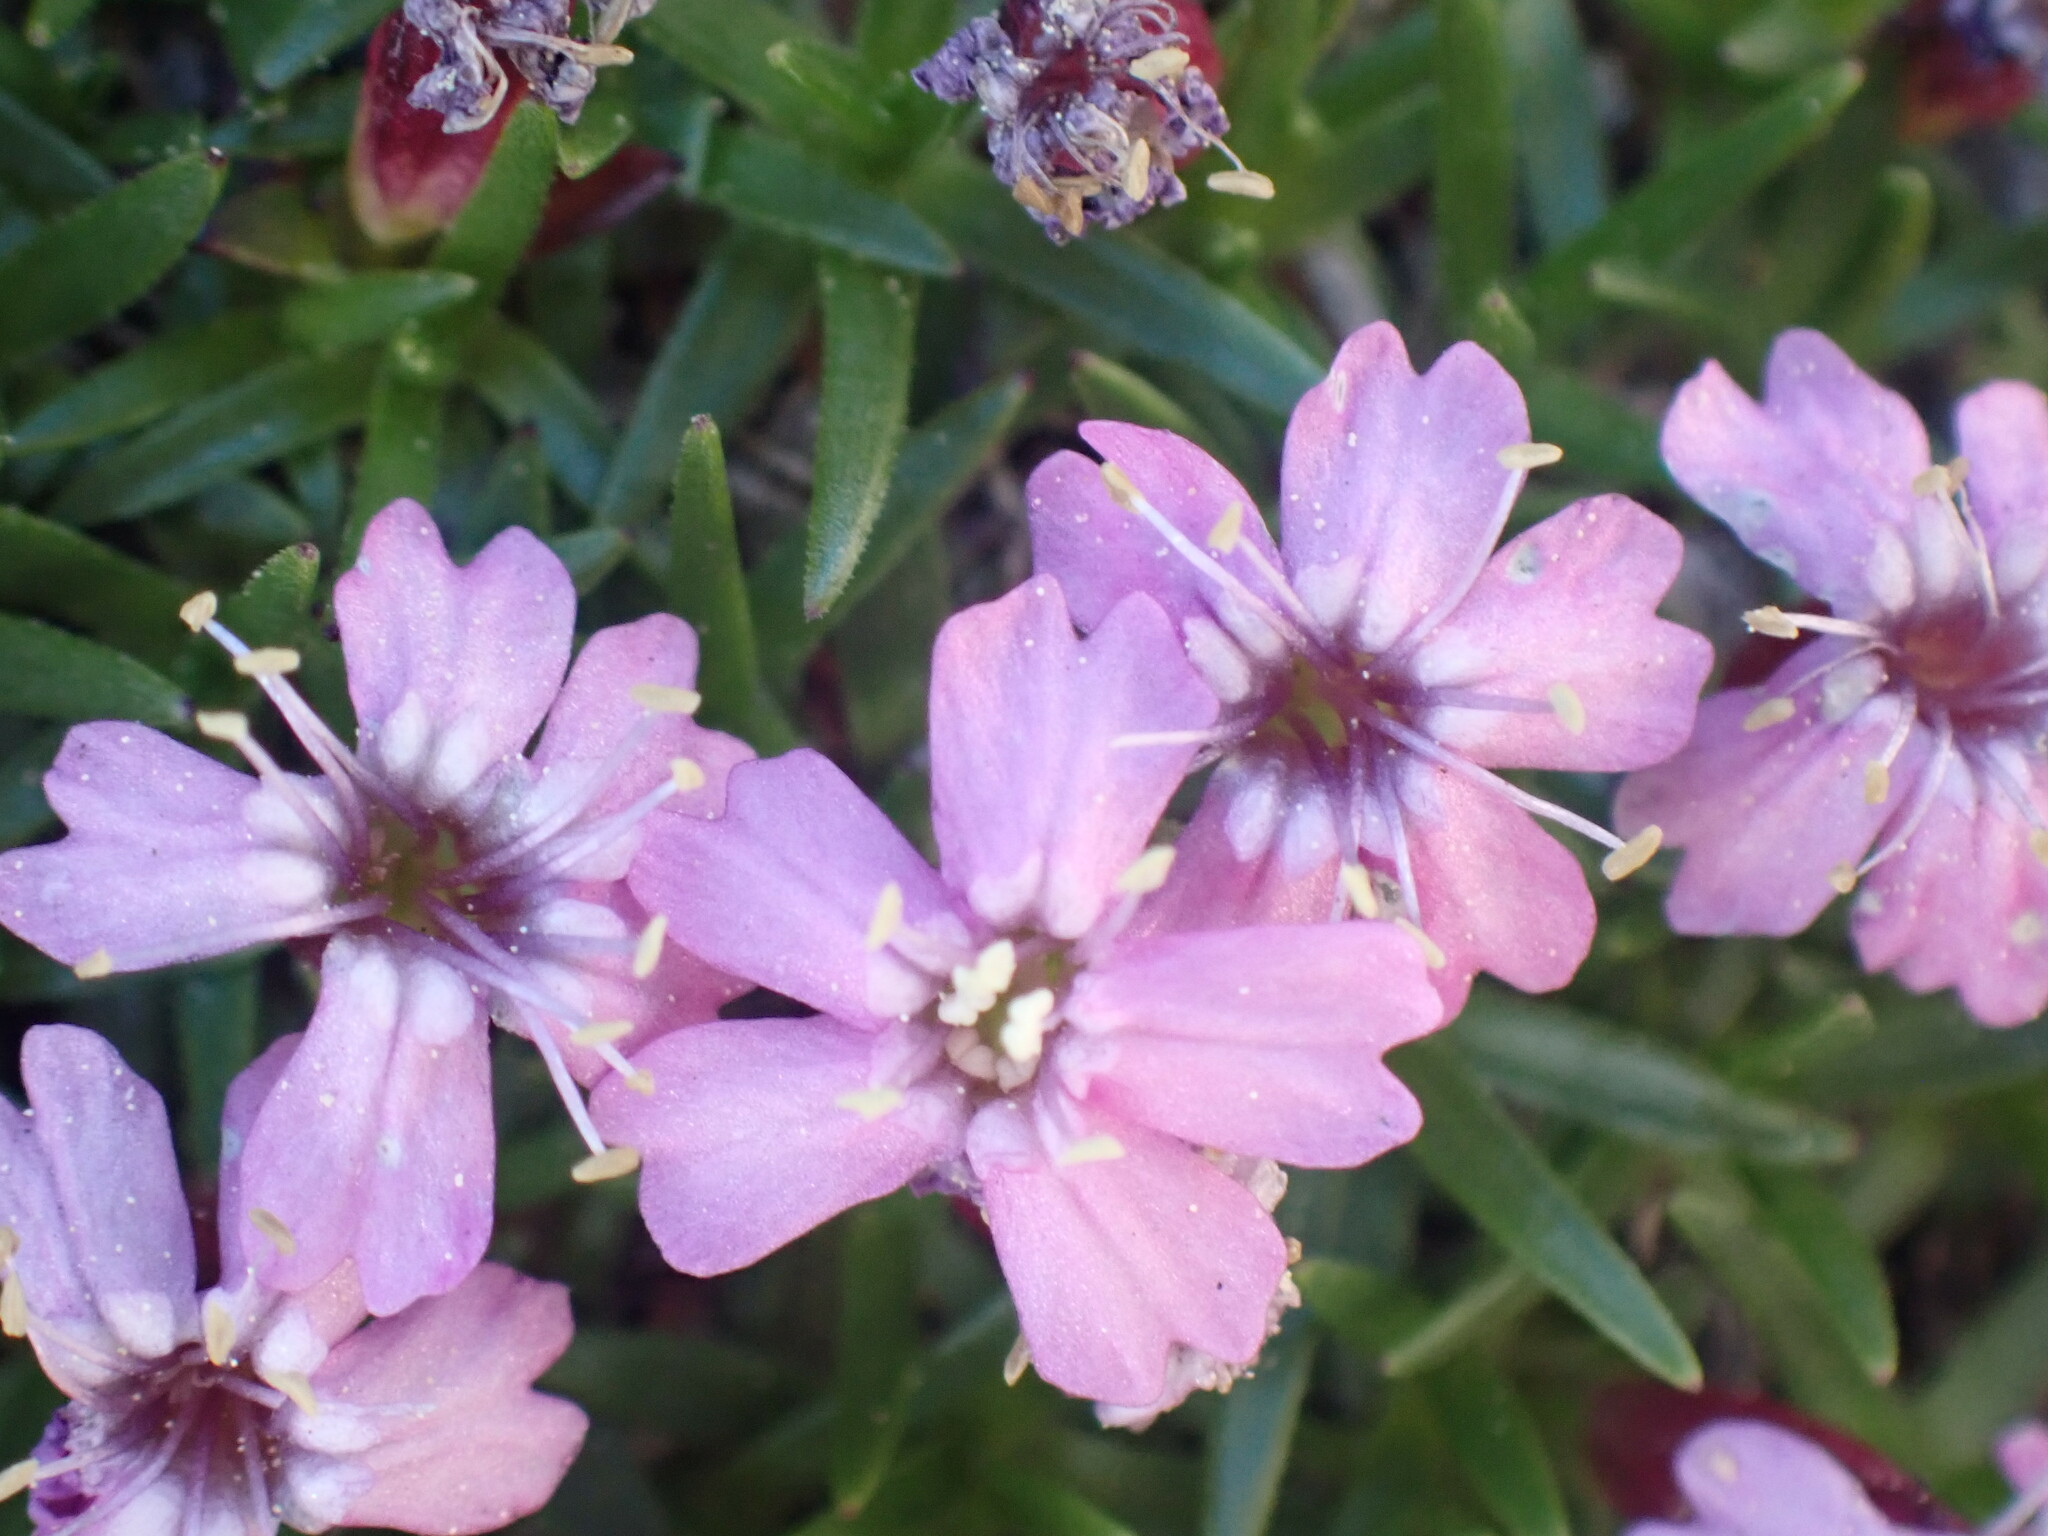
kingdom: Plantae
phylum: Tracheophyta
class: Magnoliopsida
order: Caryophyllales
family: Caryophyllaceae
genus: Silene
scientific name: Silene acaulis
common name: Moss campion
